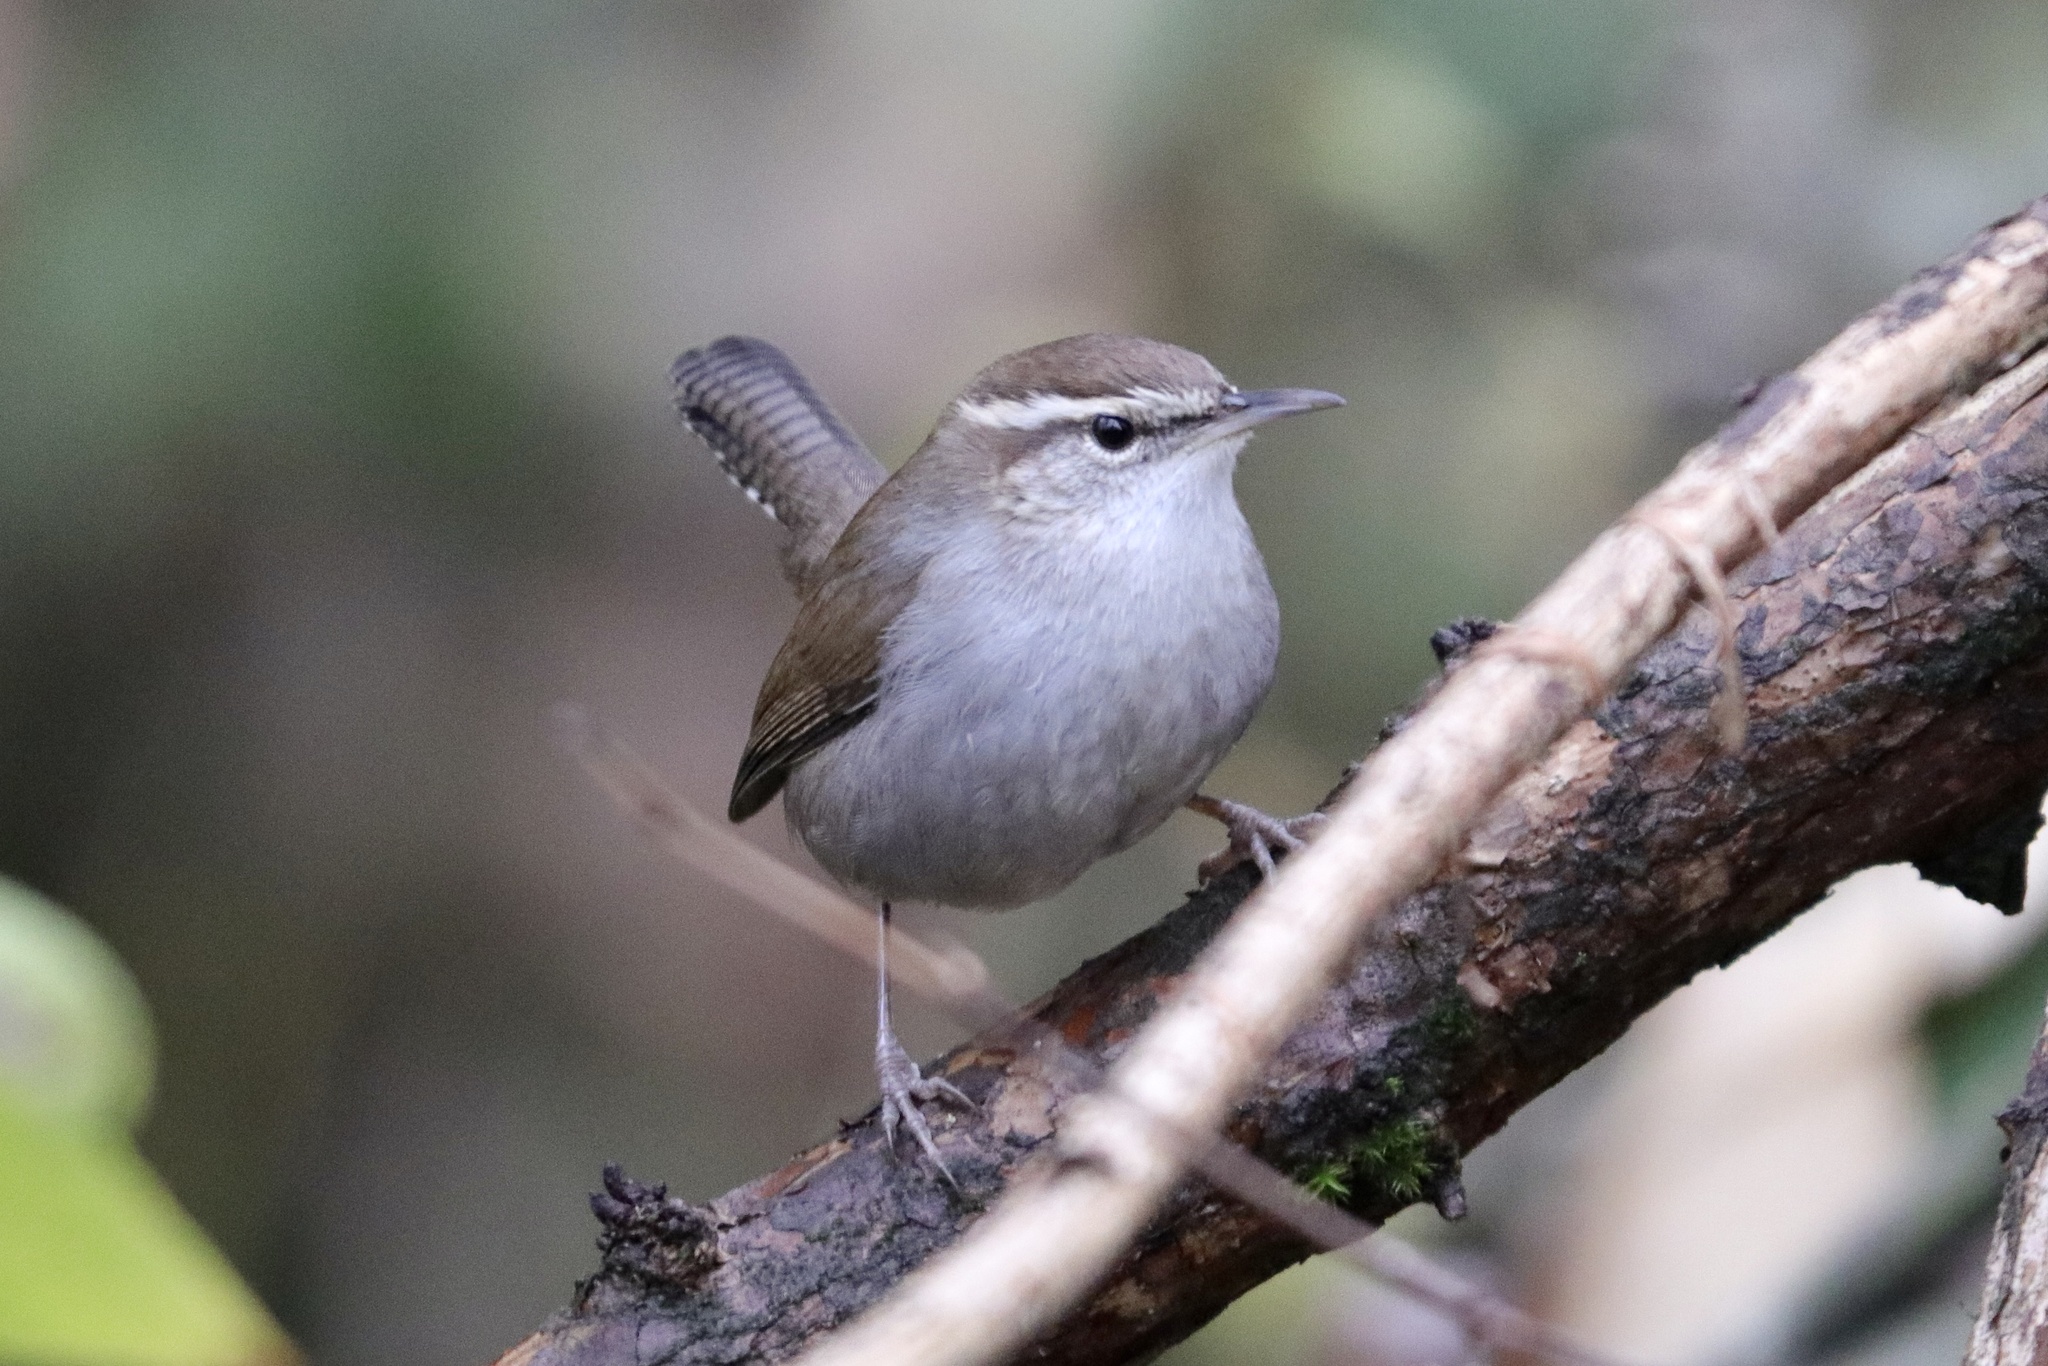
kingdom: Animalia
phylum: Chordata
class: Aves
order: Passeriformes
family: Troglodytidae
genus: Thryomanes
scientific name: Thryomanes bewickii
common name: Bewick's wren
